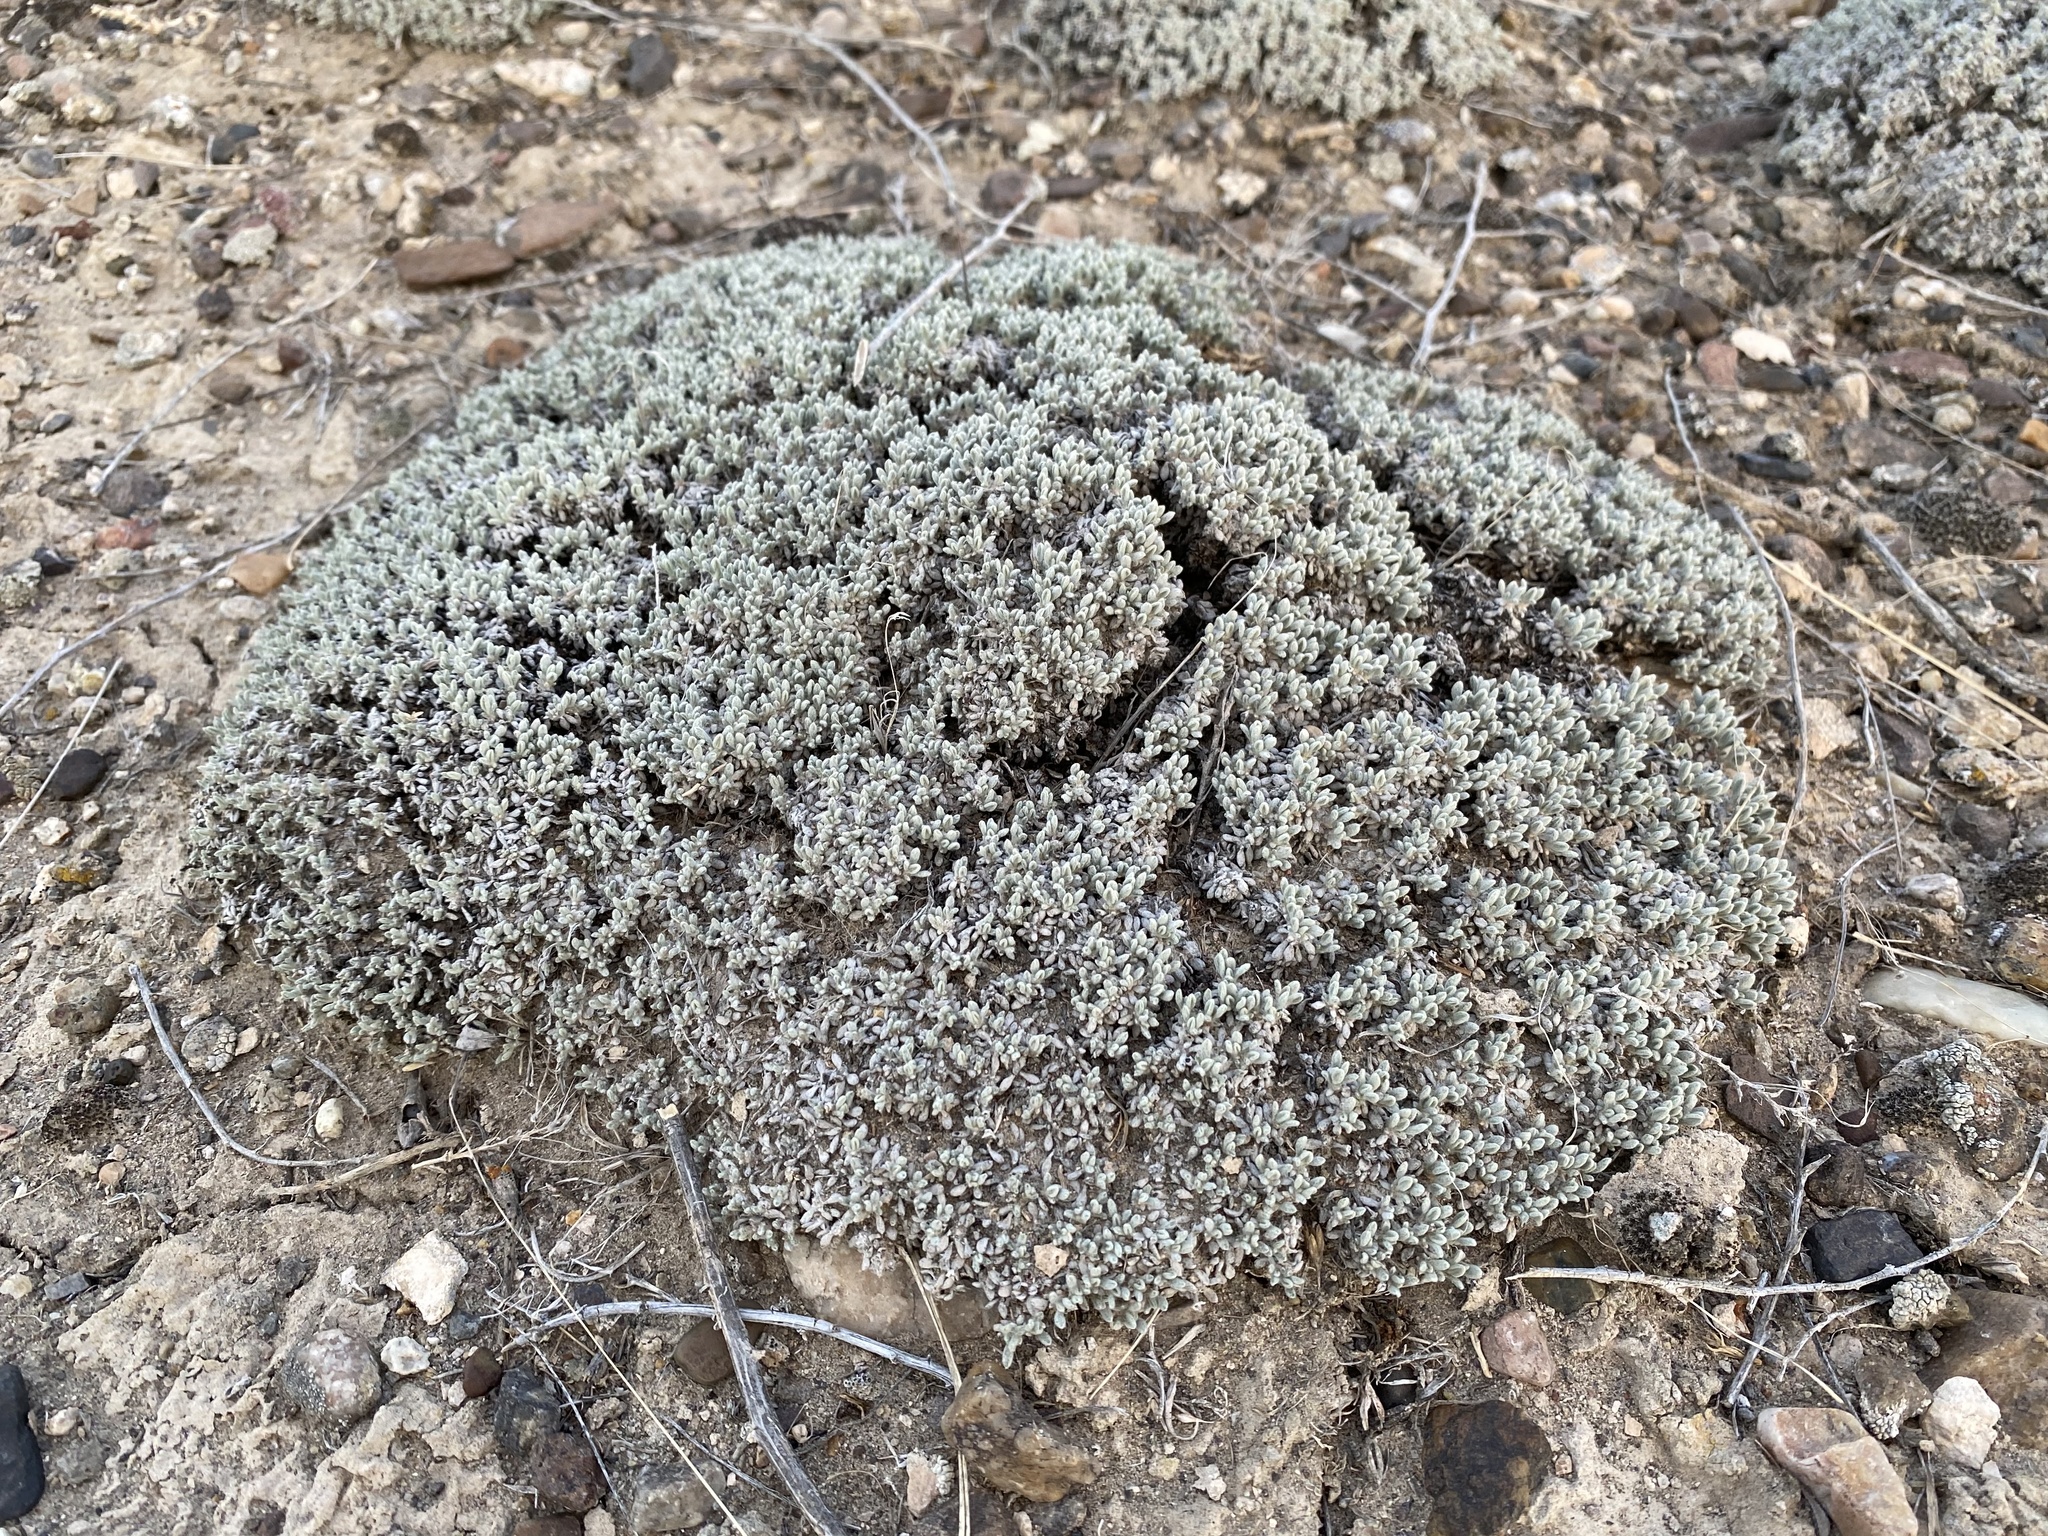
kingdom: Plantae
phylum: Tracheophyta
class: Magnoliopsida
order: Caryophyllales
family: Polygonaceae
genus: Eriogonum
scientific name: Eriogonum shockleyi
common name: Shockley's wild buckwheat
